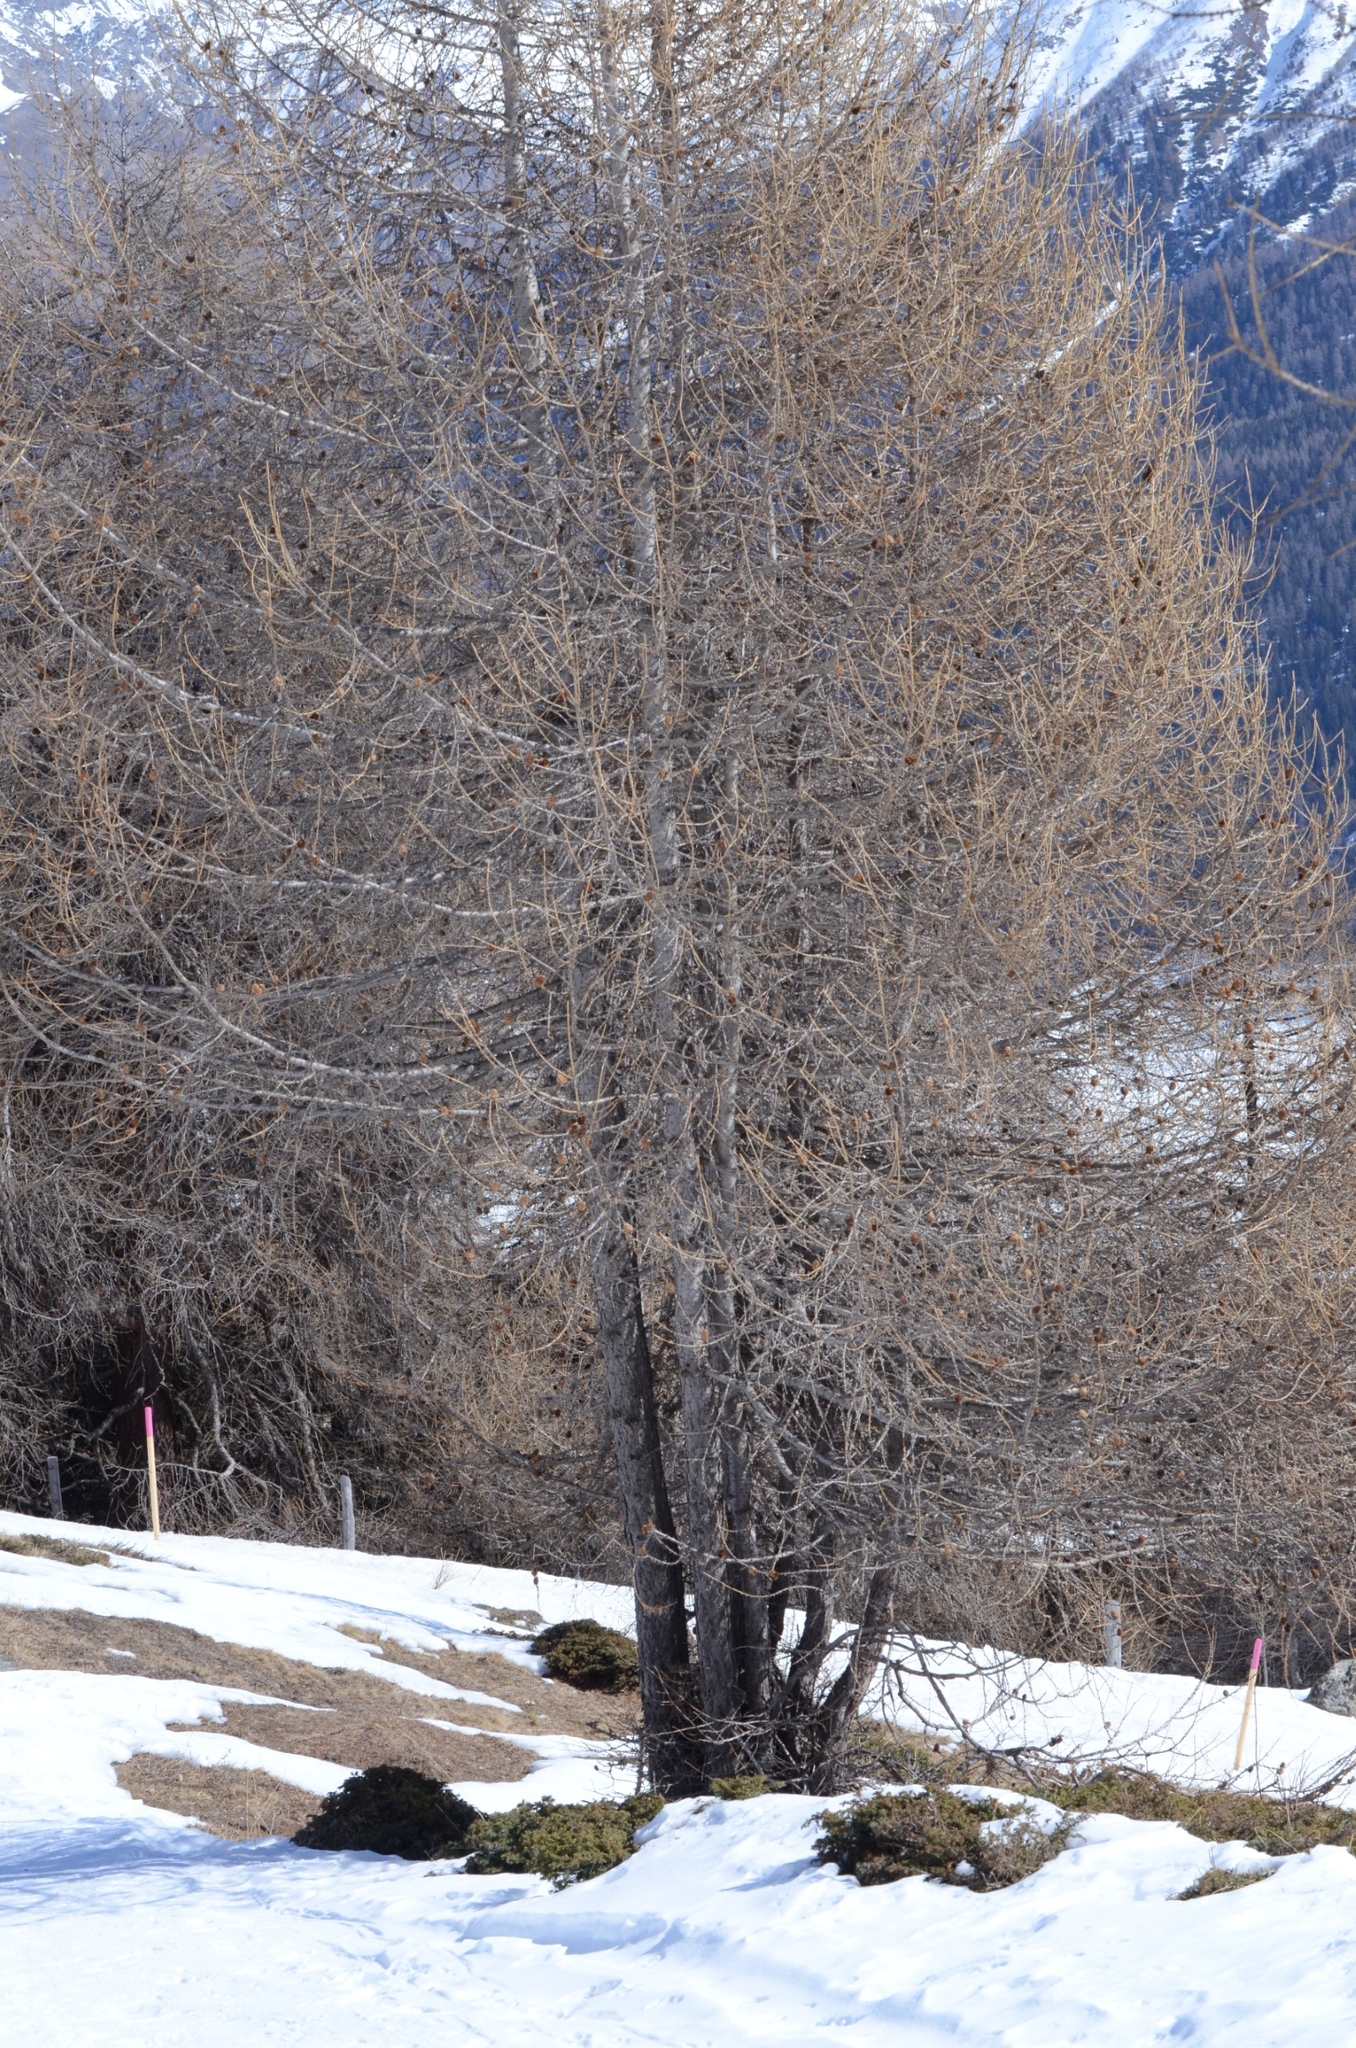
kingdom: Plantae
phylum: Tracheophyta
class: Pinopsida
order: Pinales
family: Pinaceae
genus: Larix
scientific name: Larix decidua
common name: European larch
